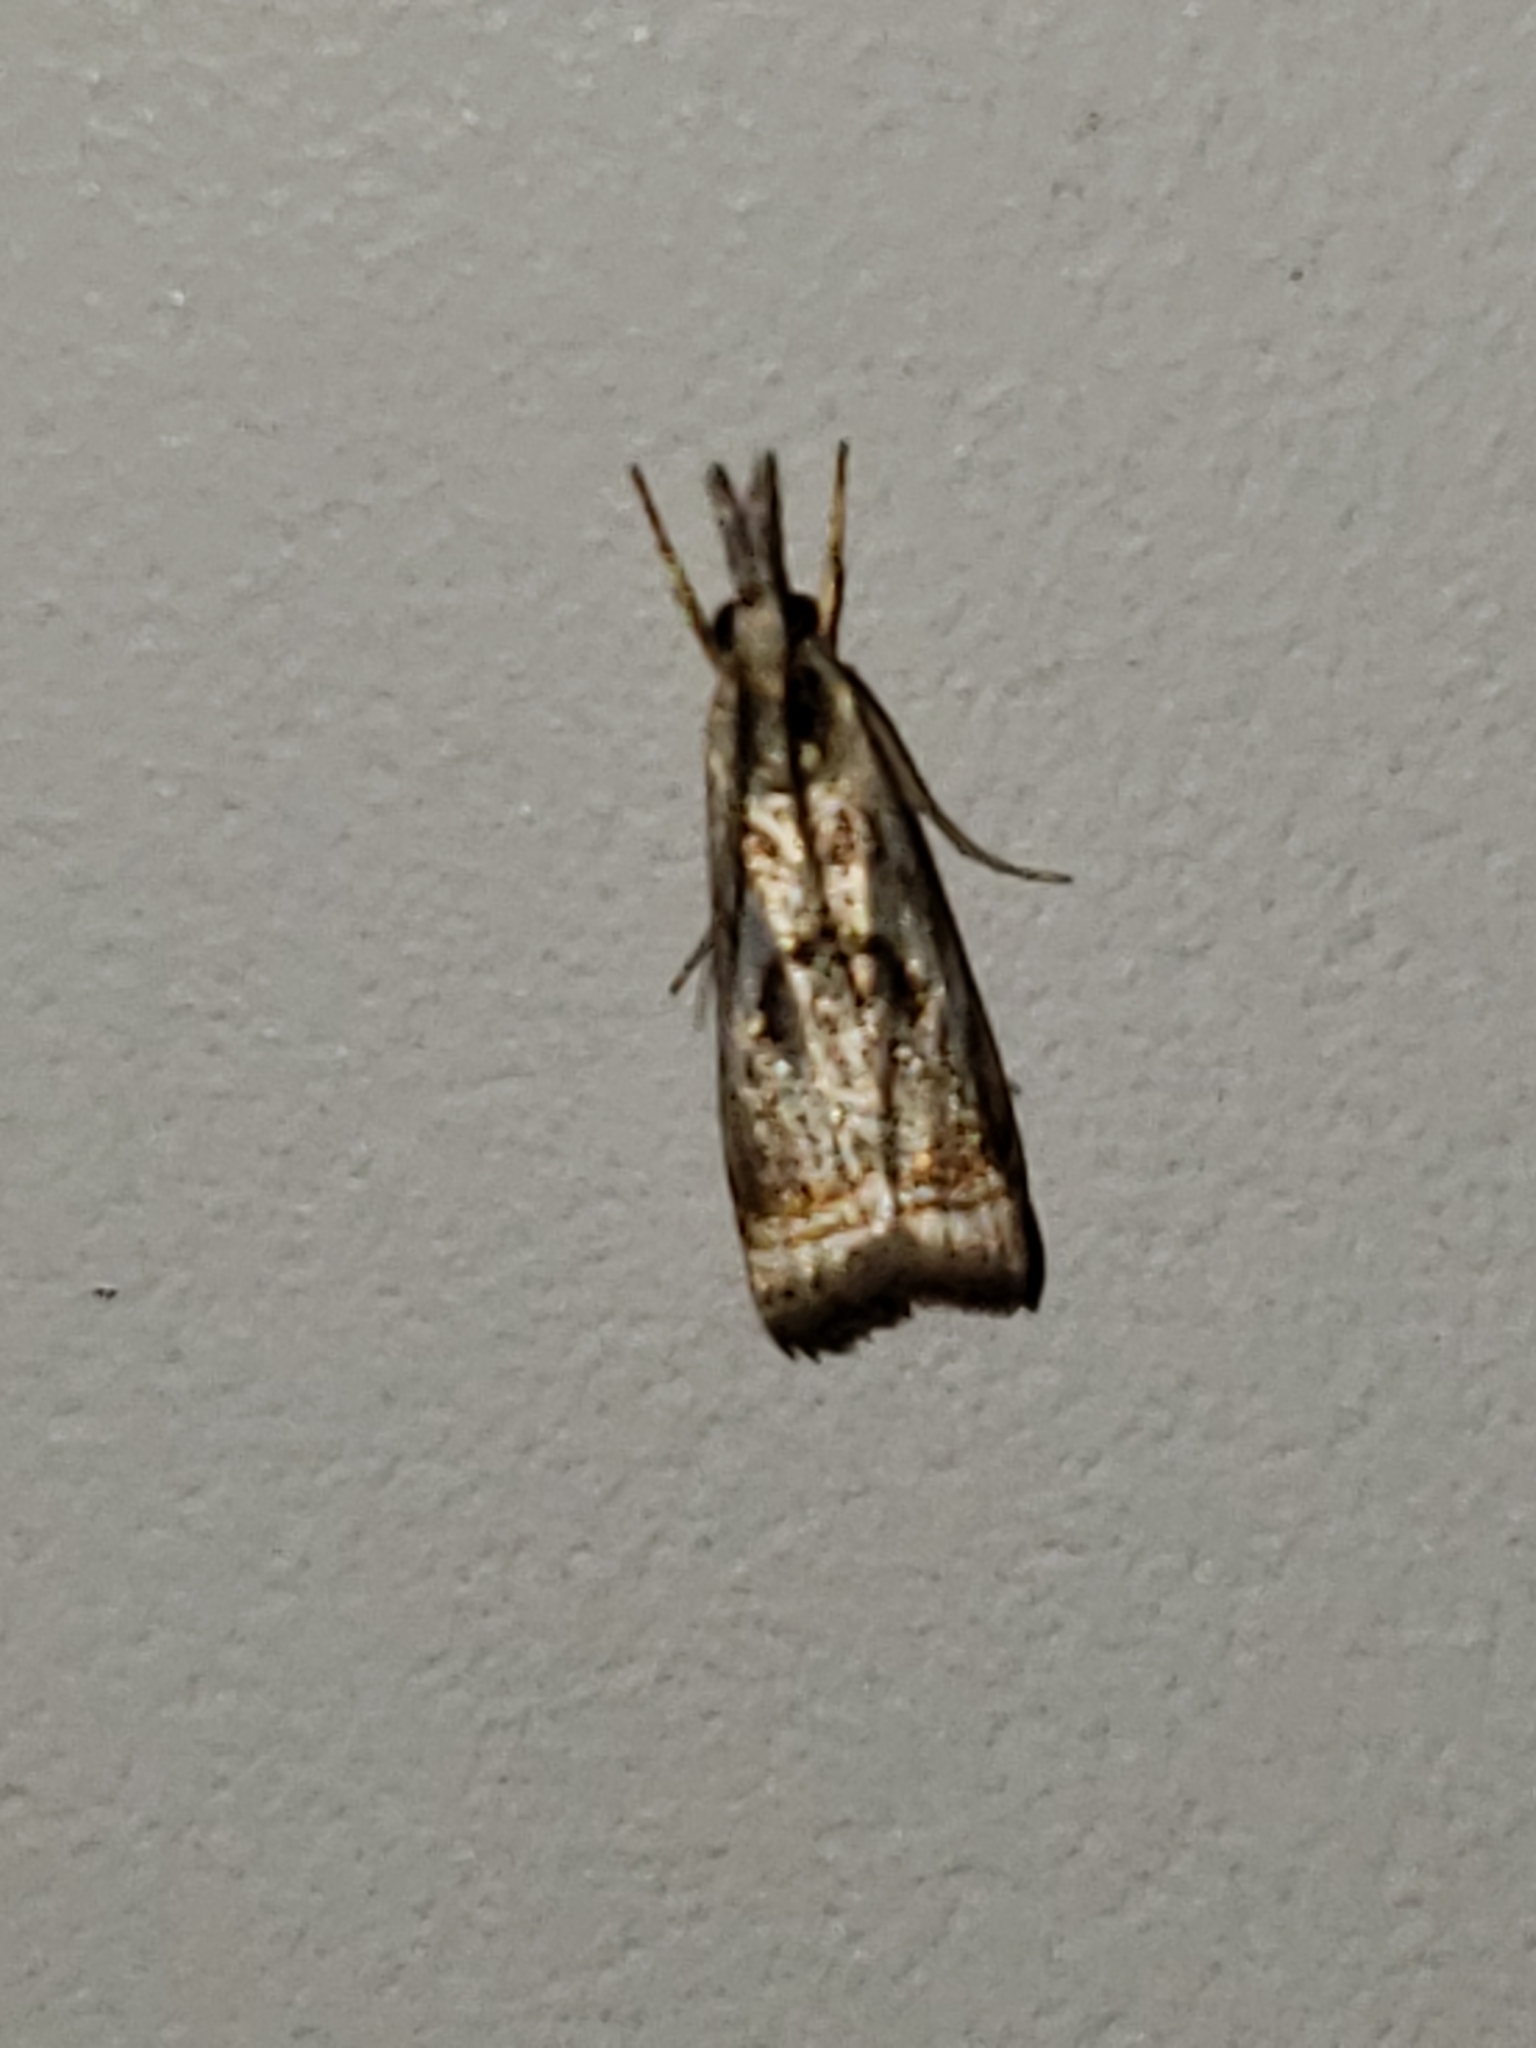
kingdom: Animalia
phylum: Arthropoda
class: Insecta
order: Lepidoptera
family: Crambidae
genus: Microcrambus
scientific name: Microcrambus elegans
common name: Elegant grass-veneer
